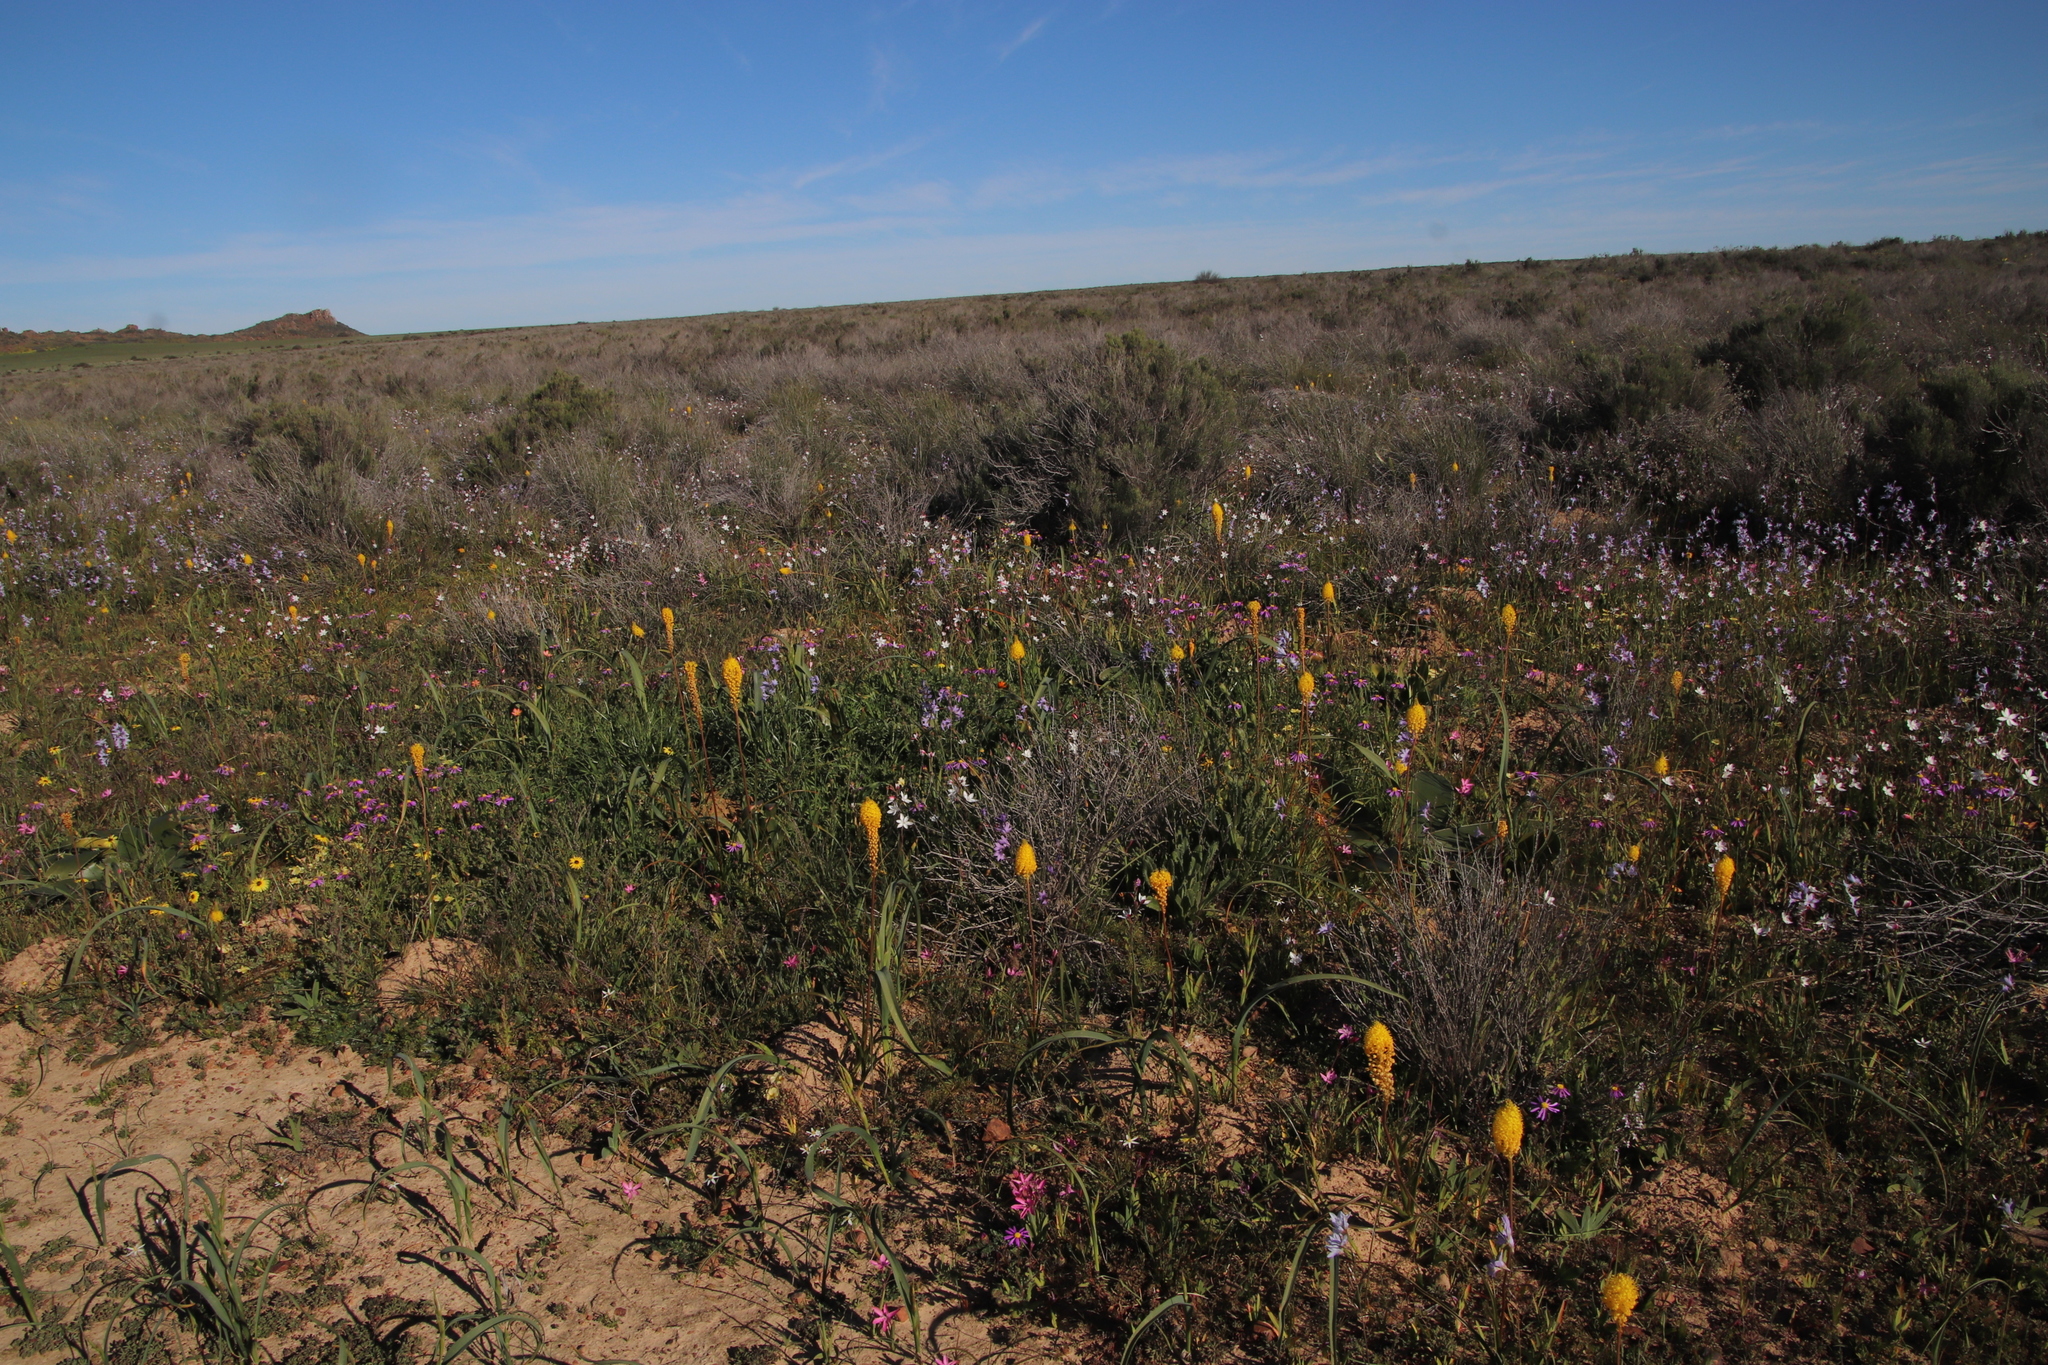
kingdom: Plantae
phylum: Tracheophyta
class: Liliopsida
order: Asparagales
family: Asphodelaceae
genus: Bulbinella
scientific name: Bulbinella nutans
